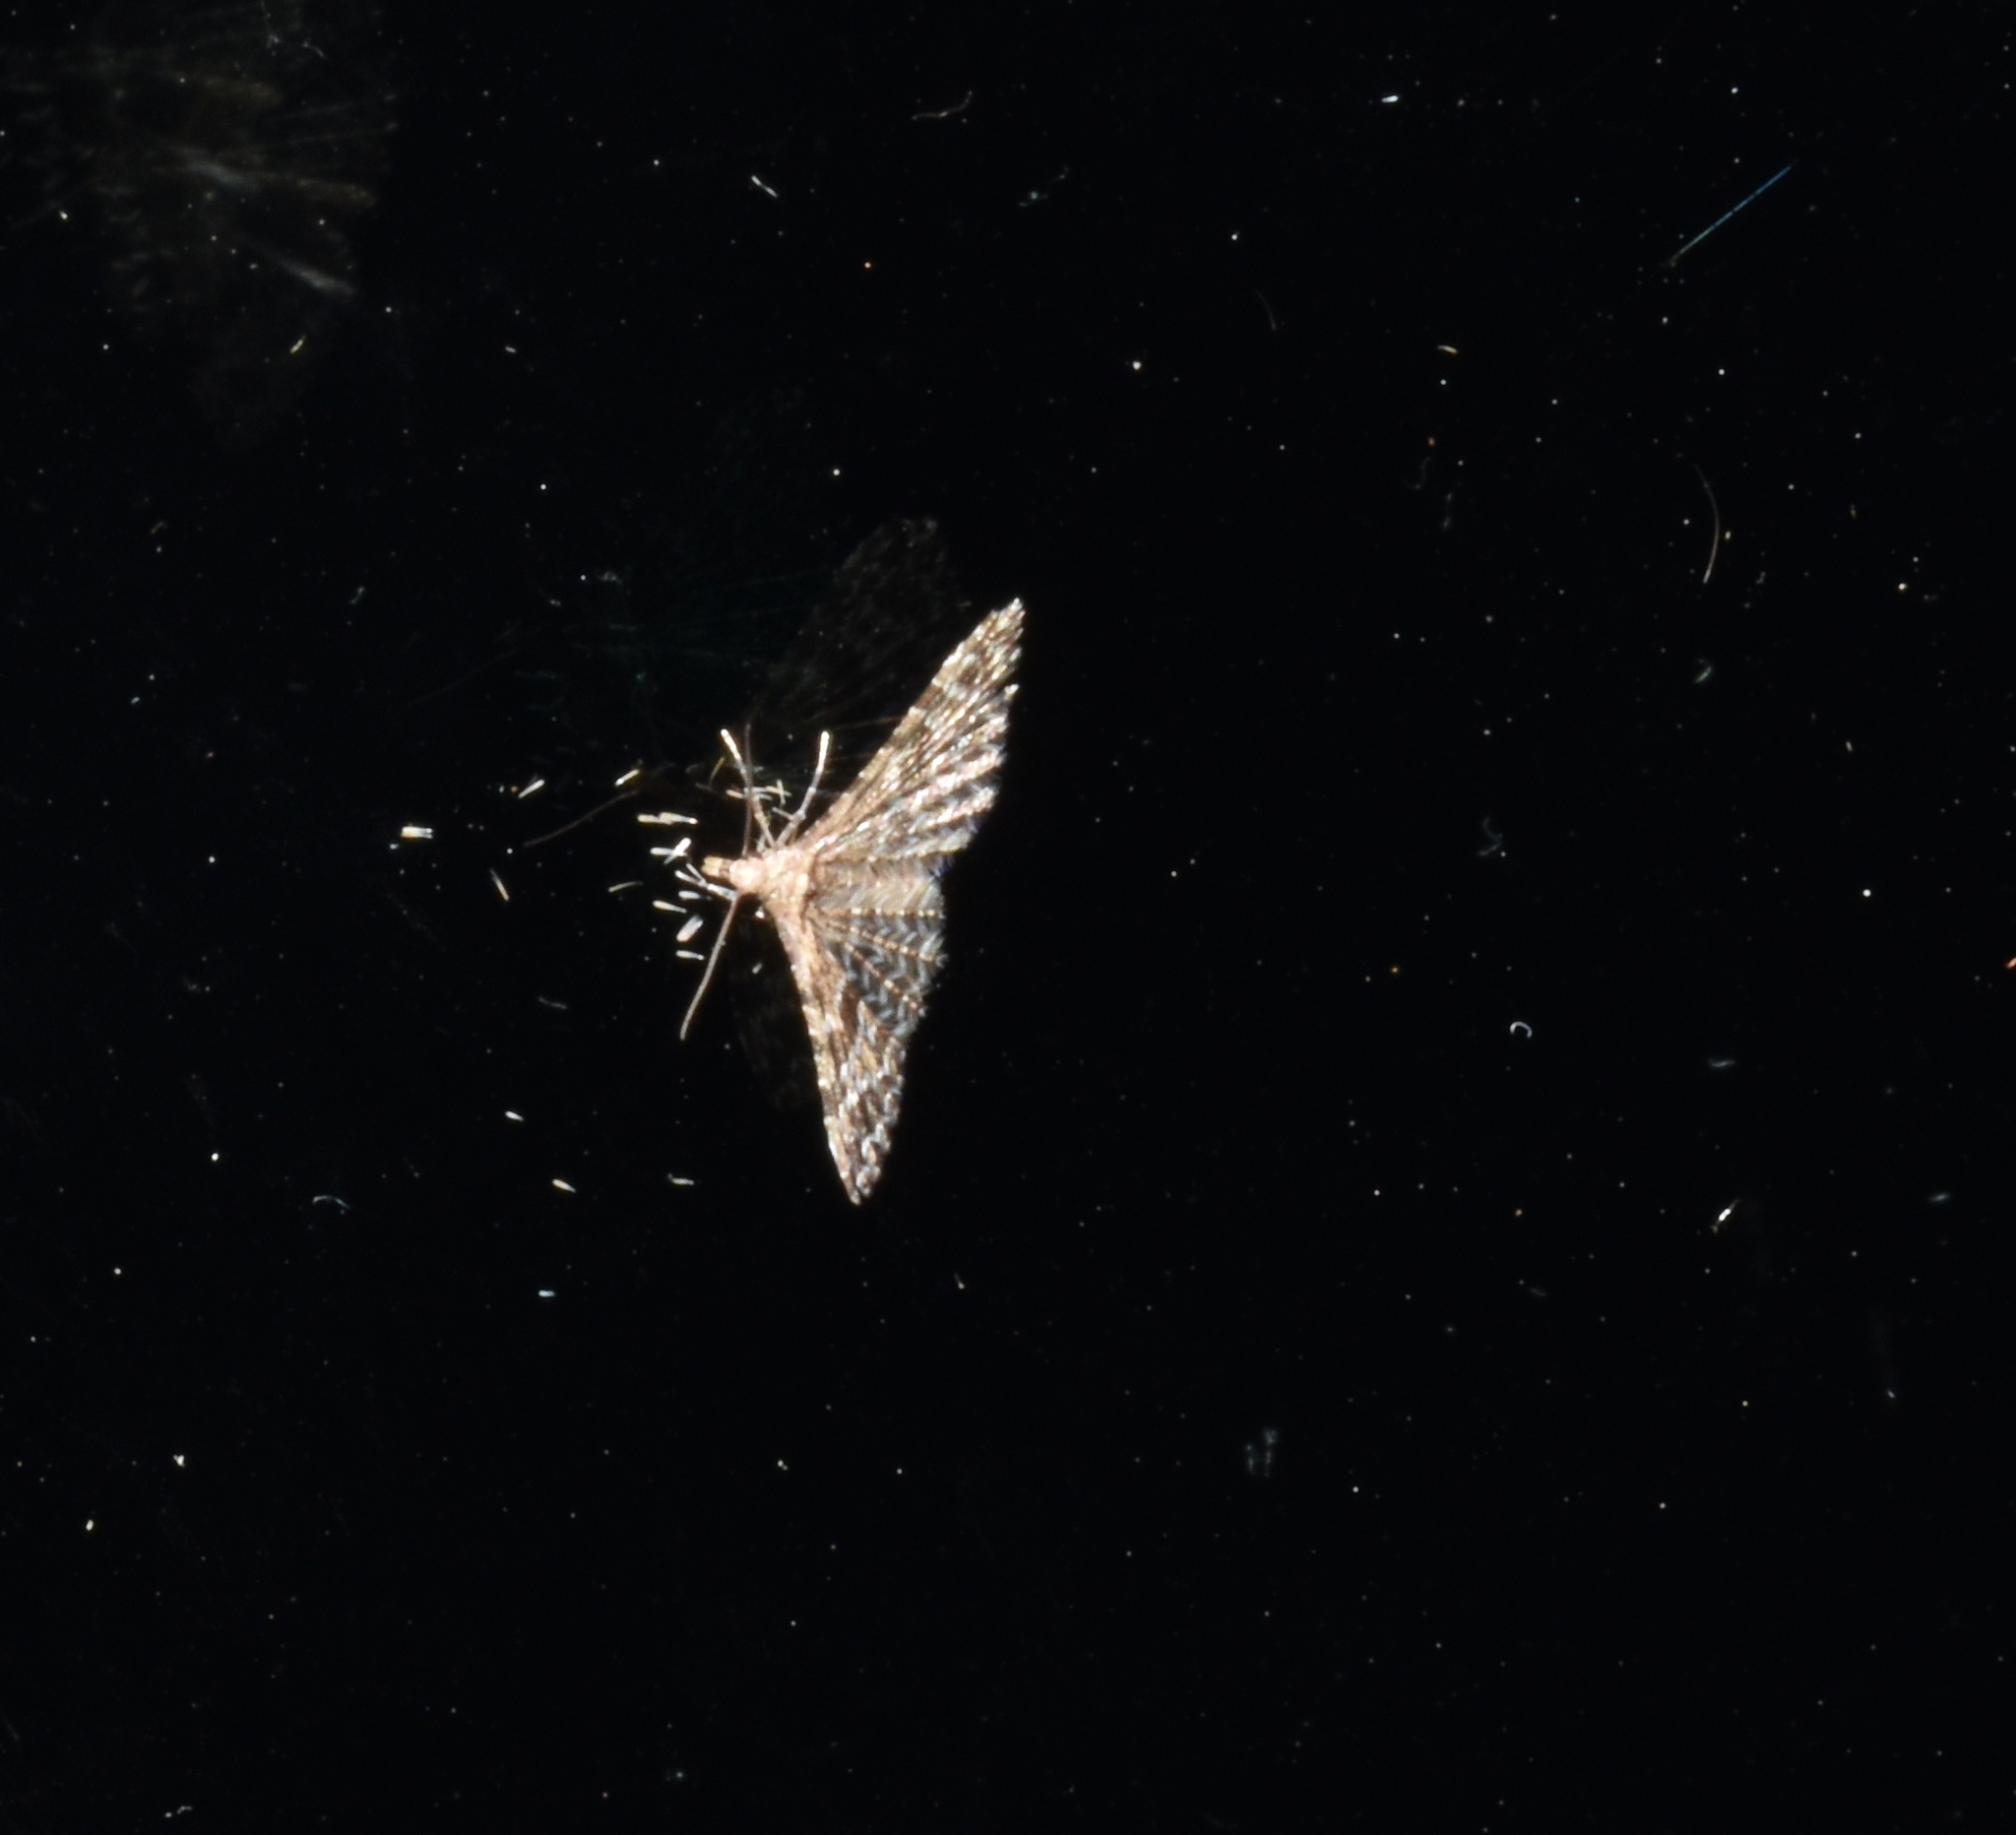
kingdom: Animalia
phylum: Arthropoda
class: Insecta
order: Lepidoptera
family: Alucitidae
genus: Alucita
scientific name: Alucita montana
